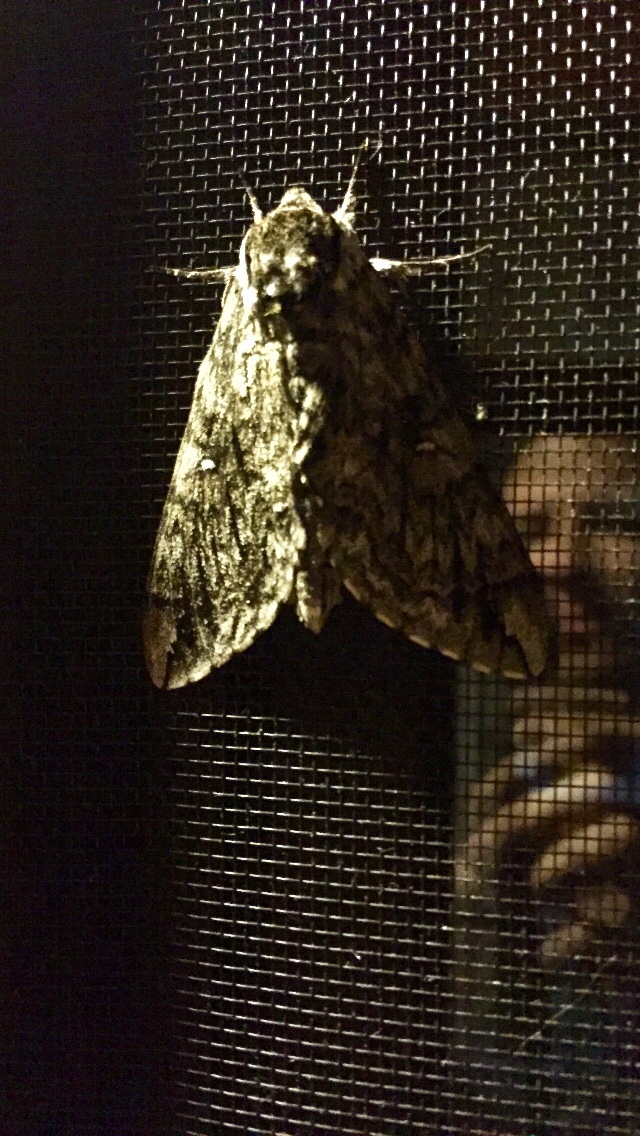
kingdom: Animalia
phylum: Arthropoda
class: Insecta
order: Lepidoptera
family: Sphingidae
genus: Ceratomia
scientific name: Ceratomia undulosa
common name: Waved sphinx
